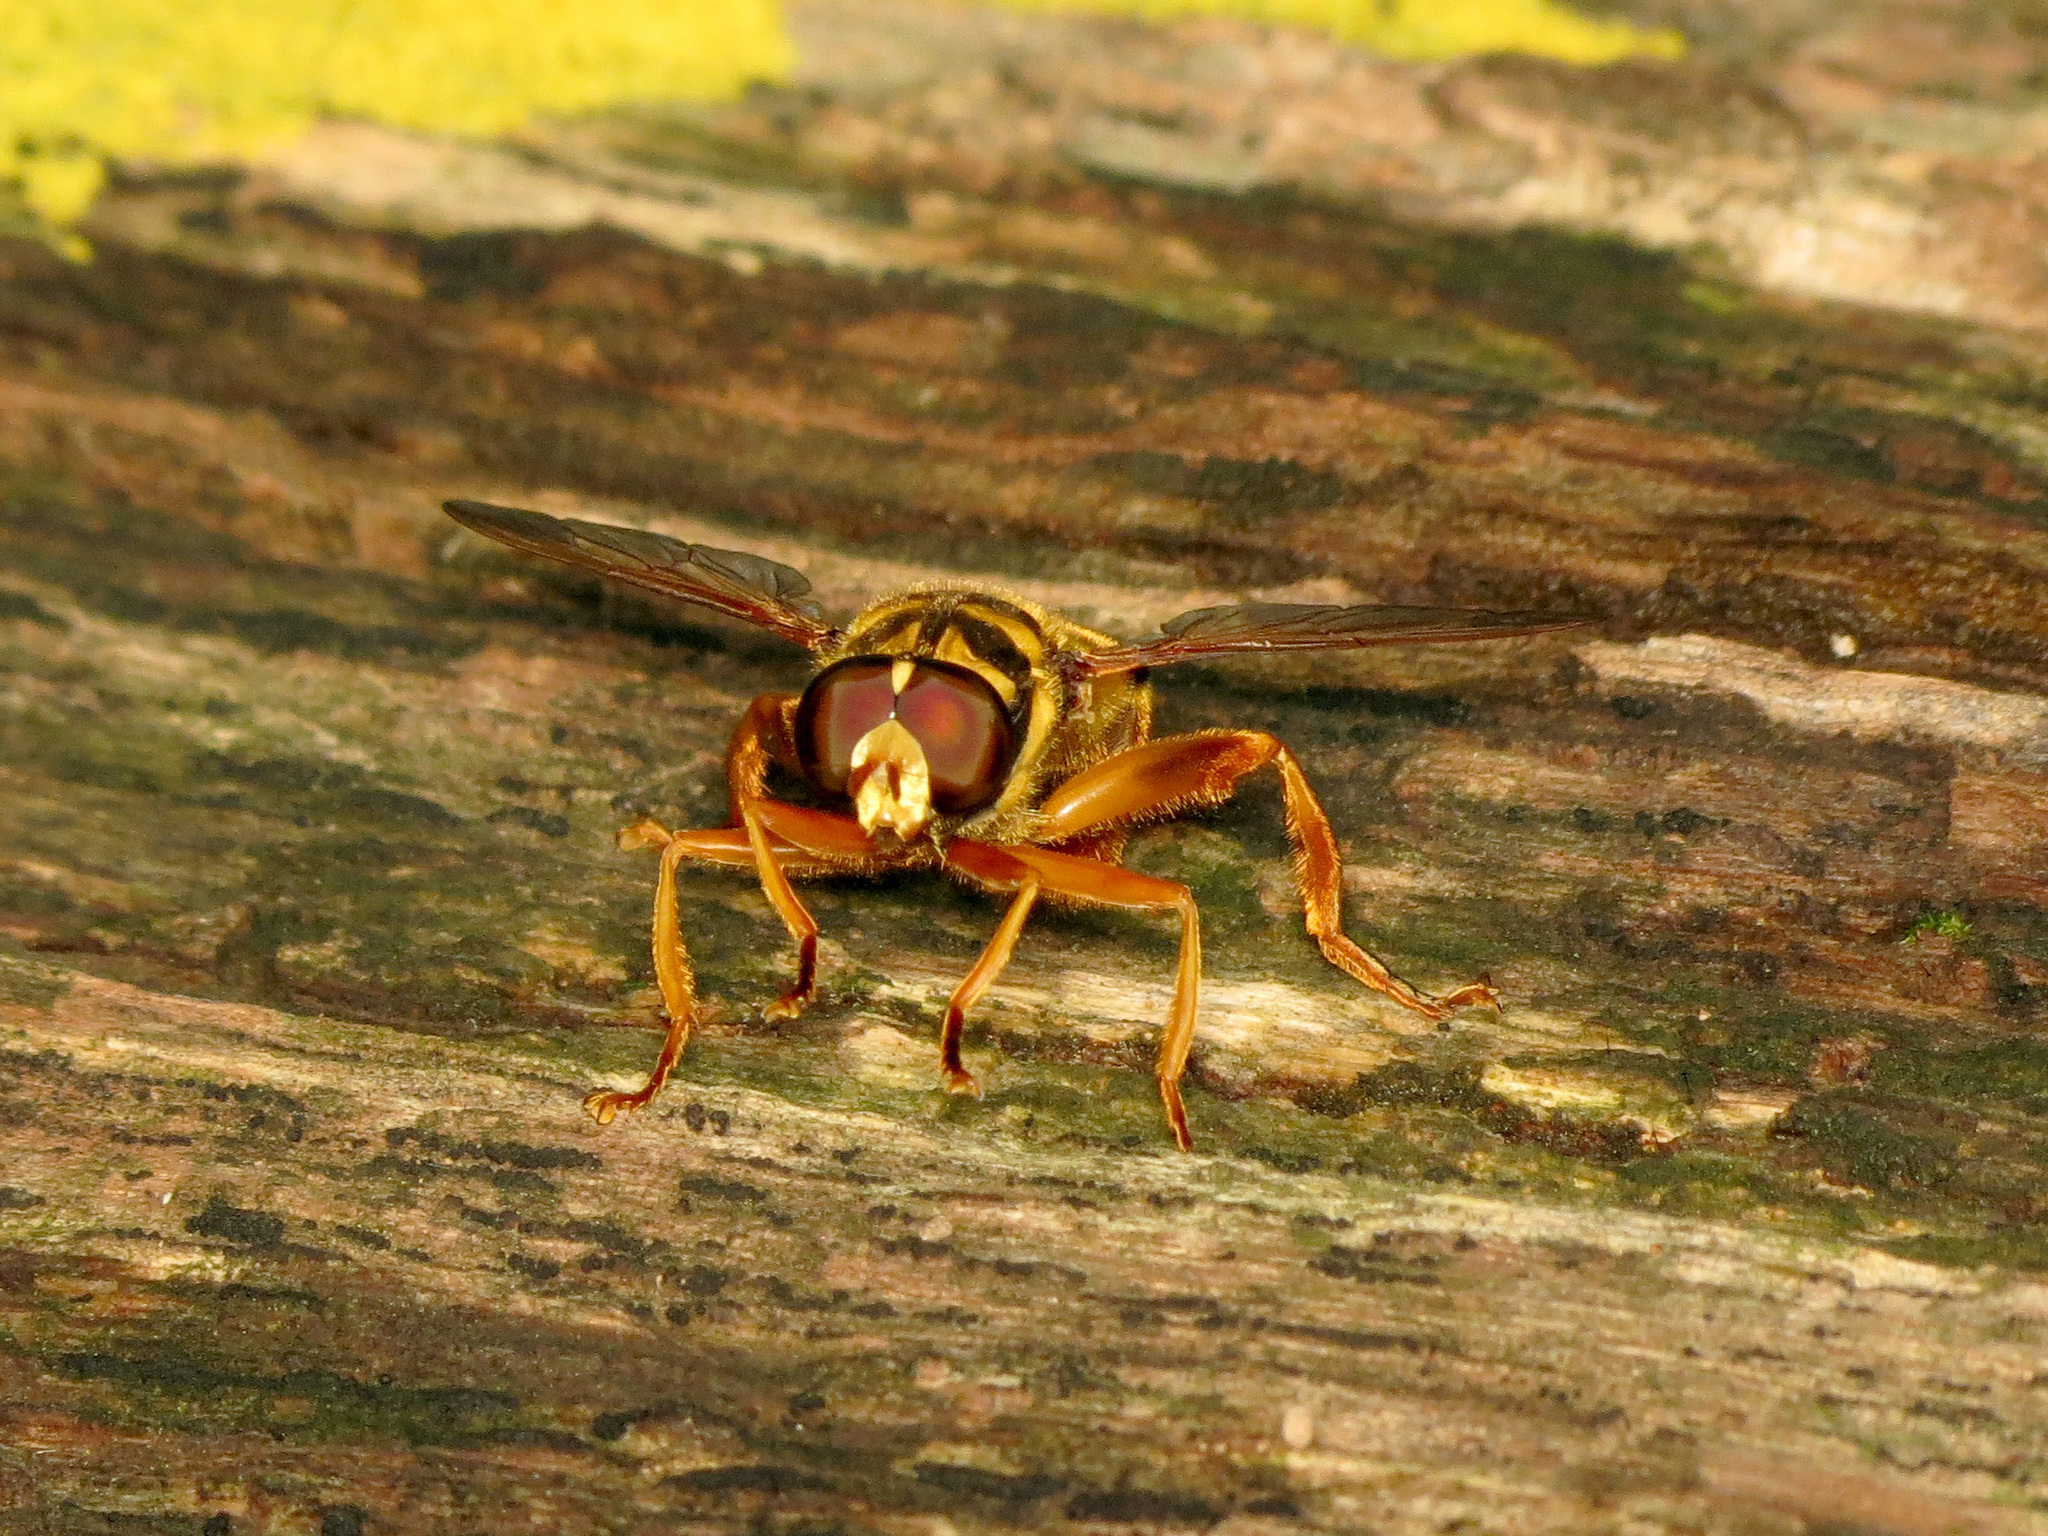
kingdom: Animalia
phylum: Arthropoda
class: Insecta
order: Diptera
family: Syrphidae
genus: Milesia
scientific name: Milesia virginiensis
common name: Virginia giant
